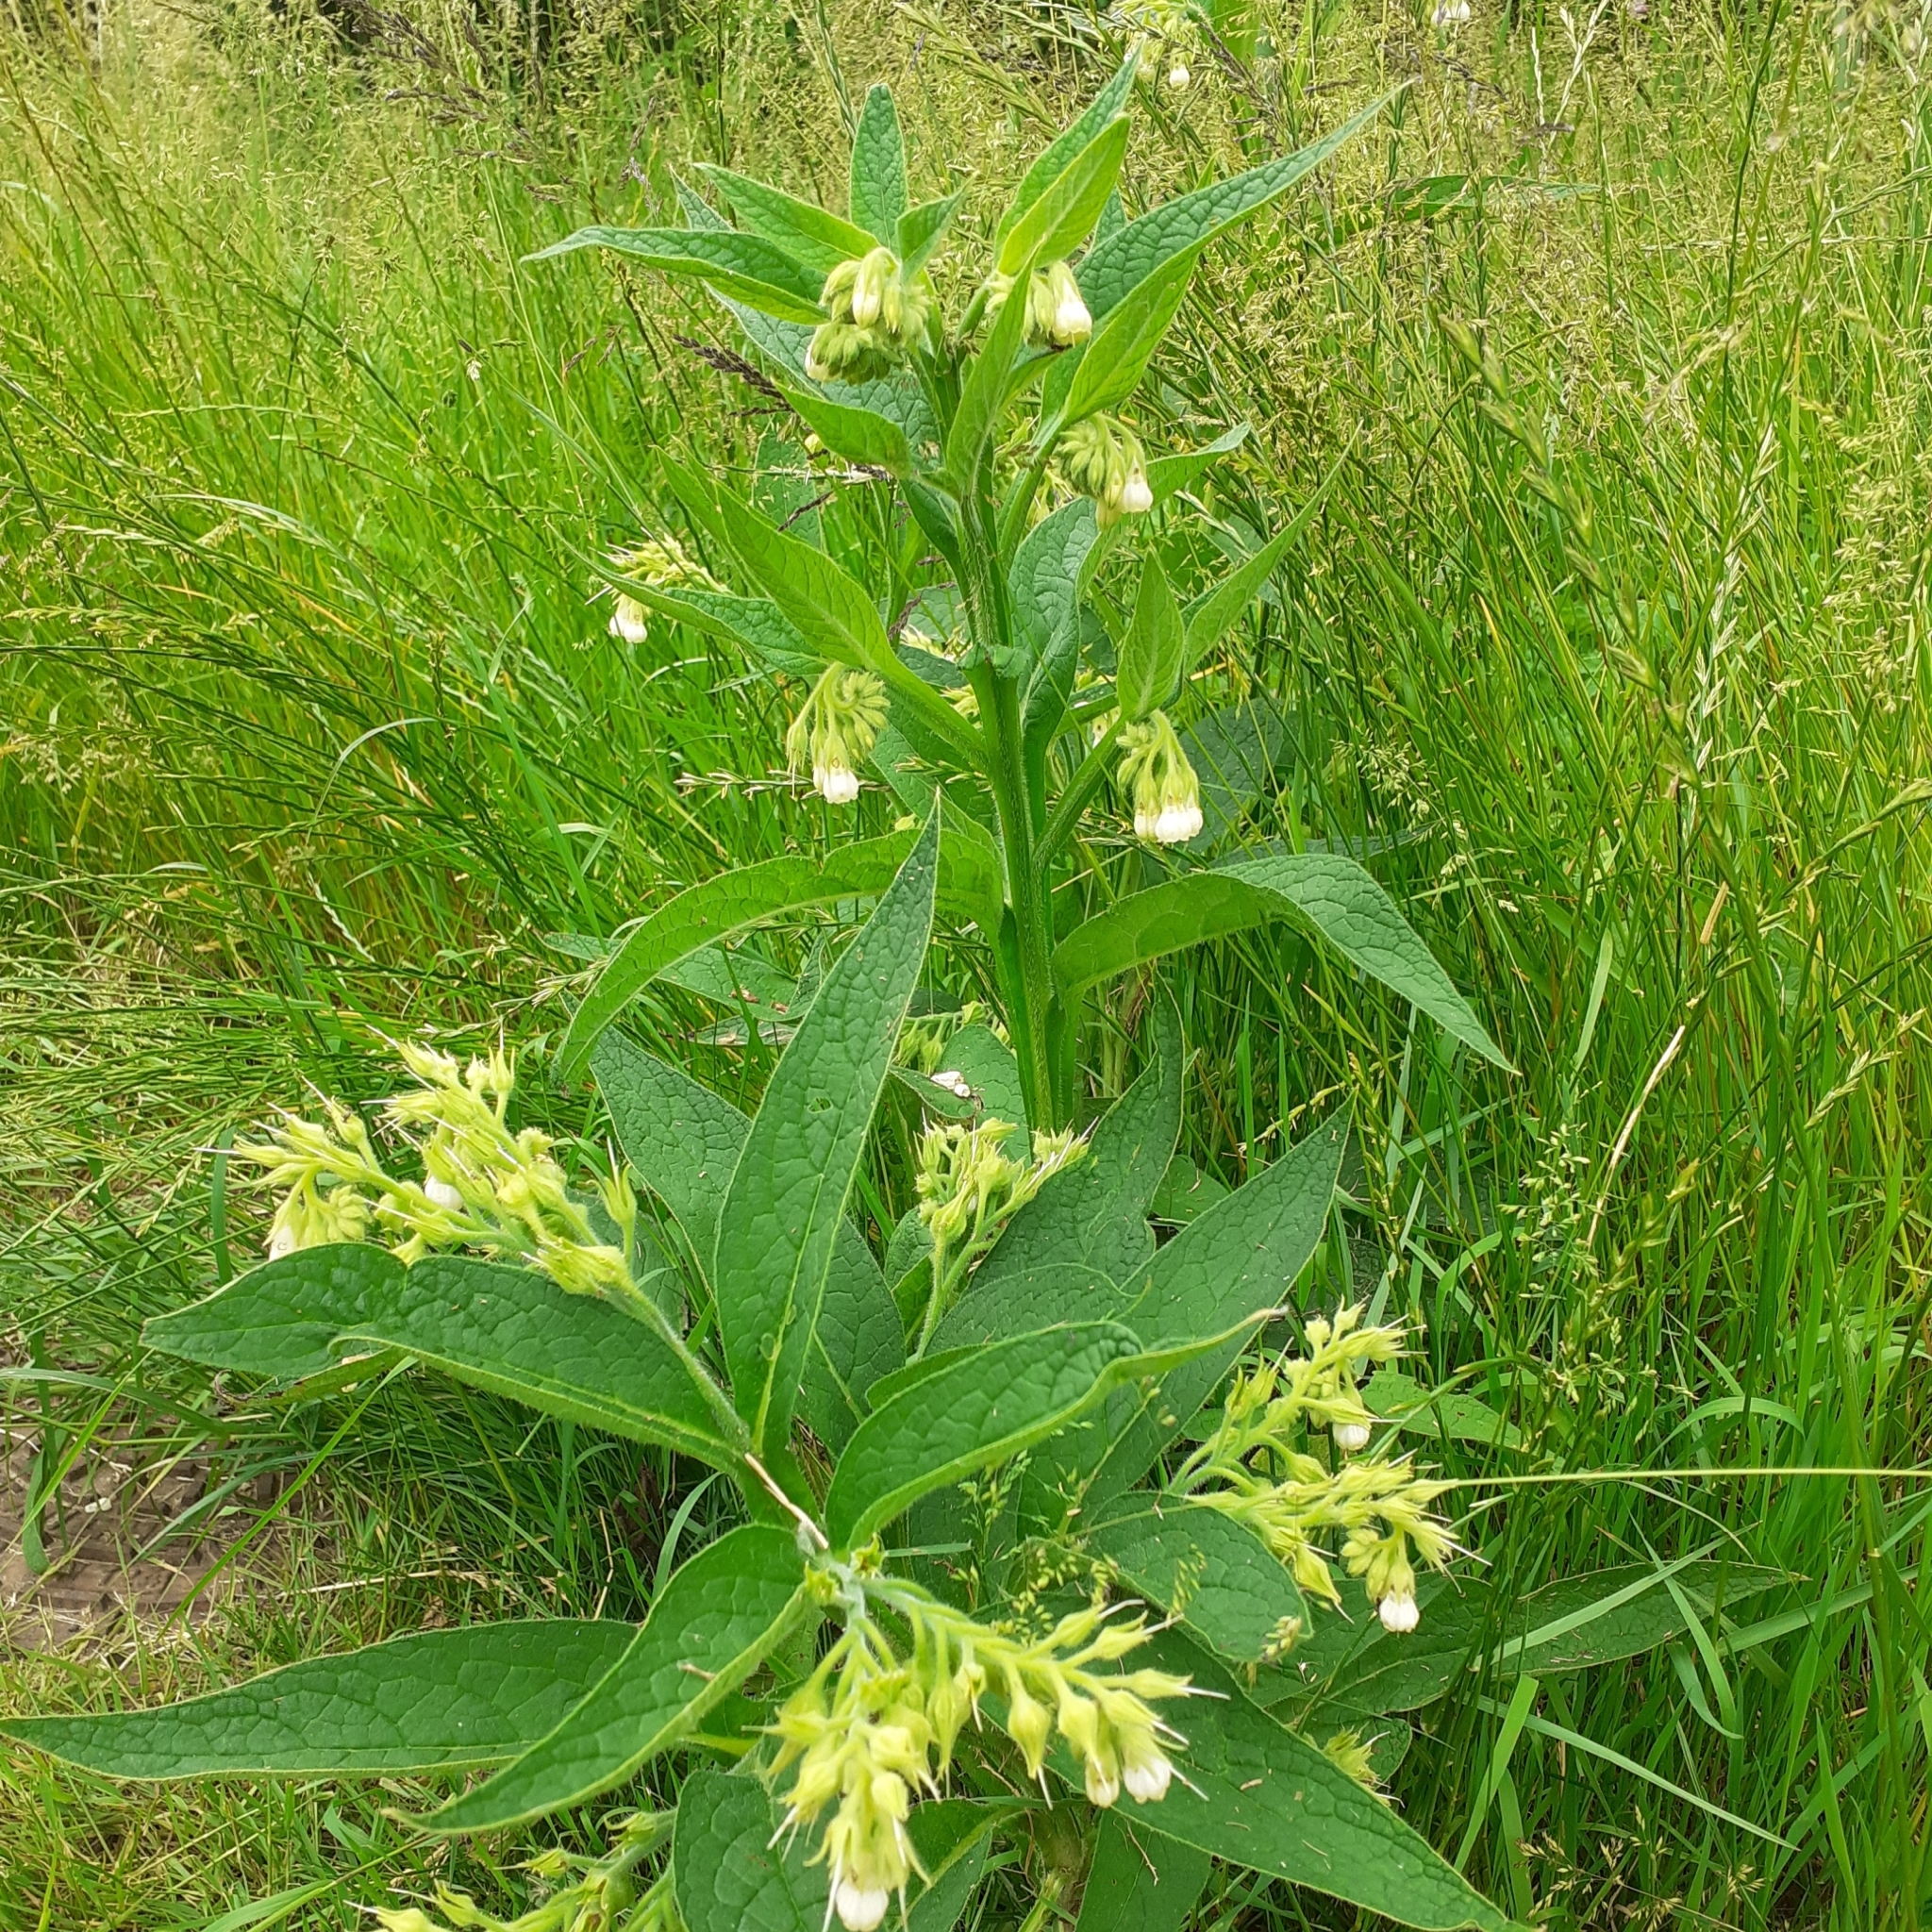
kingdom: Plantae
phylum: Tracheophyta
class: Magnoliopsida
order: Boraginales
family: Boraginaceae
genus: Symphytum
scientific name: Symphytum officinale
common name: Common comfrey
